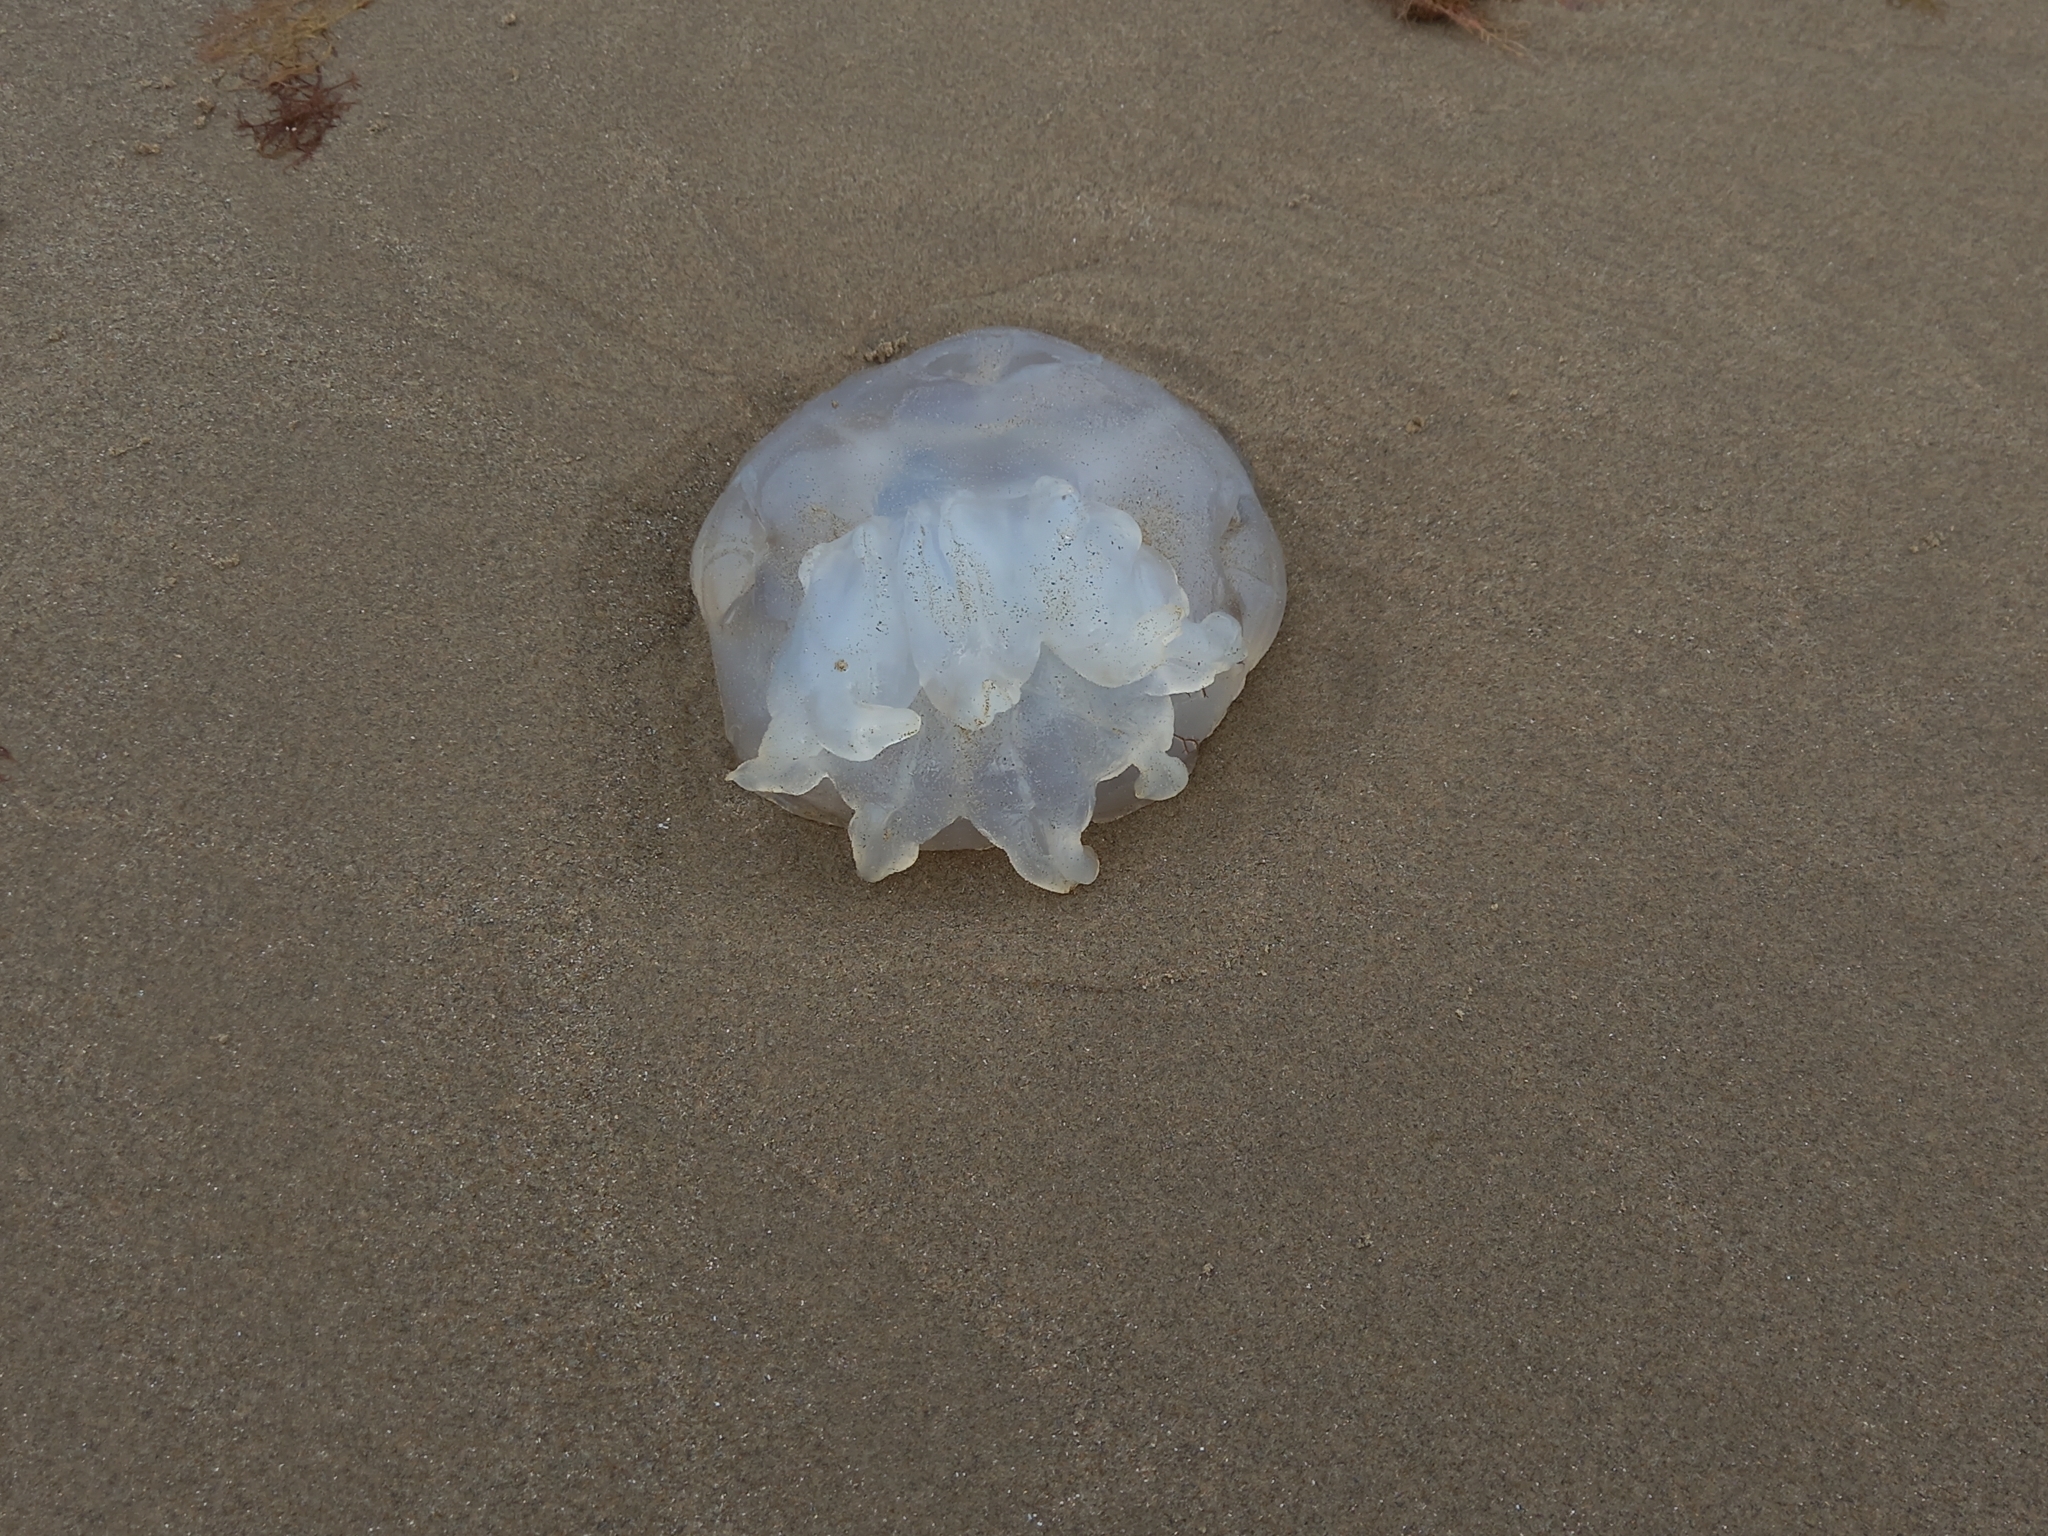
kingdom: Animalia
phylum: Cnidaria
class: Scyphozoa
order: Rhizostomeae
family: Rhizostomatidae
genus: Rhizostoma
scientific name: Rhizostoma octopus
